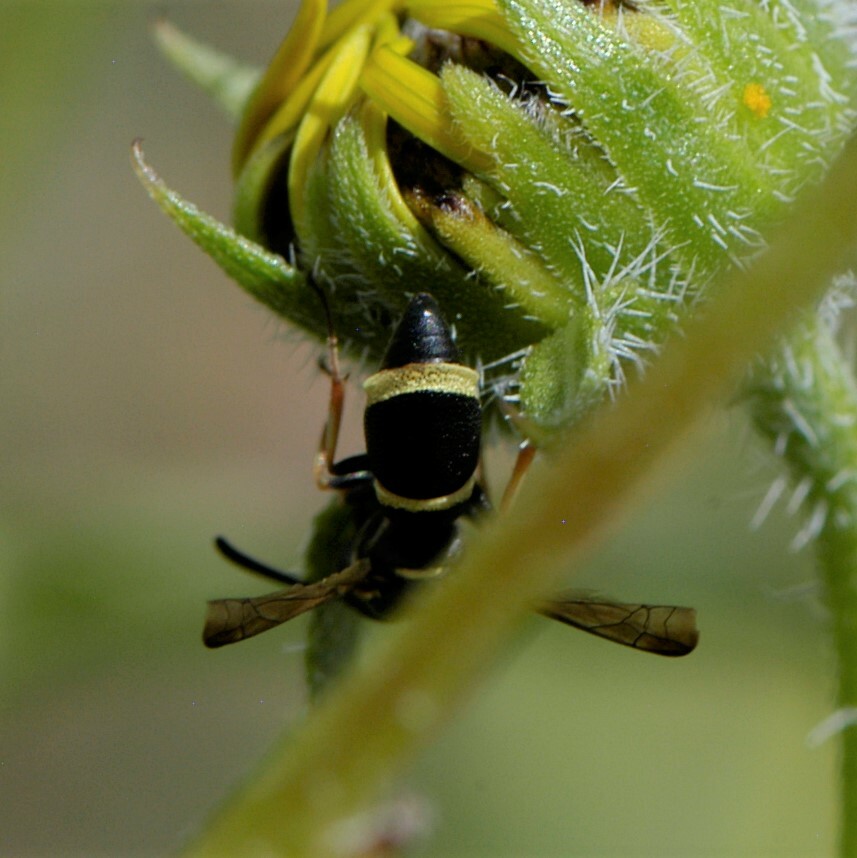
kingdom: Animalia
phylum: Arthropoda
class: Insecta
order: Hymenoptera
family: Eumenidae
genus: Parancistrocerus
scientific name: Parancistrocerus rectangulis
